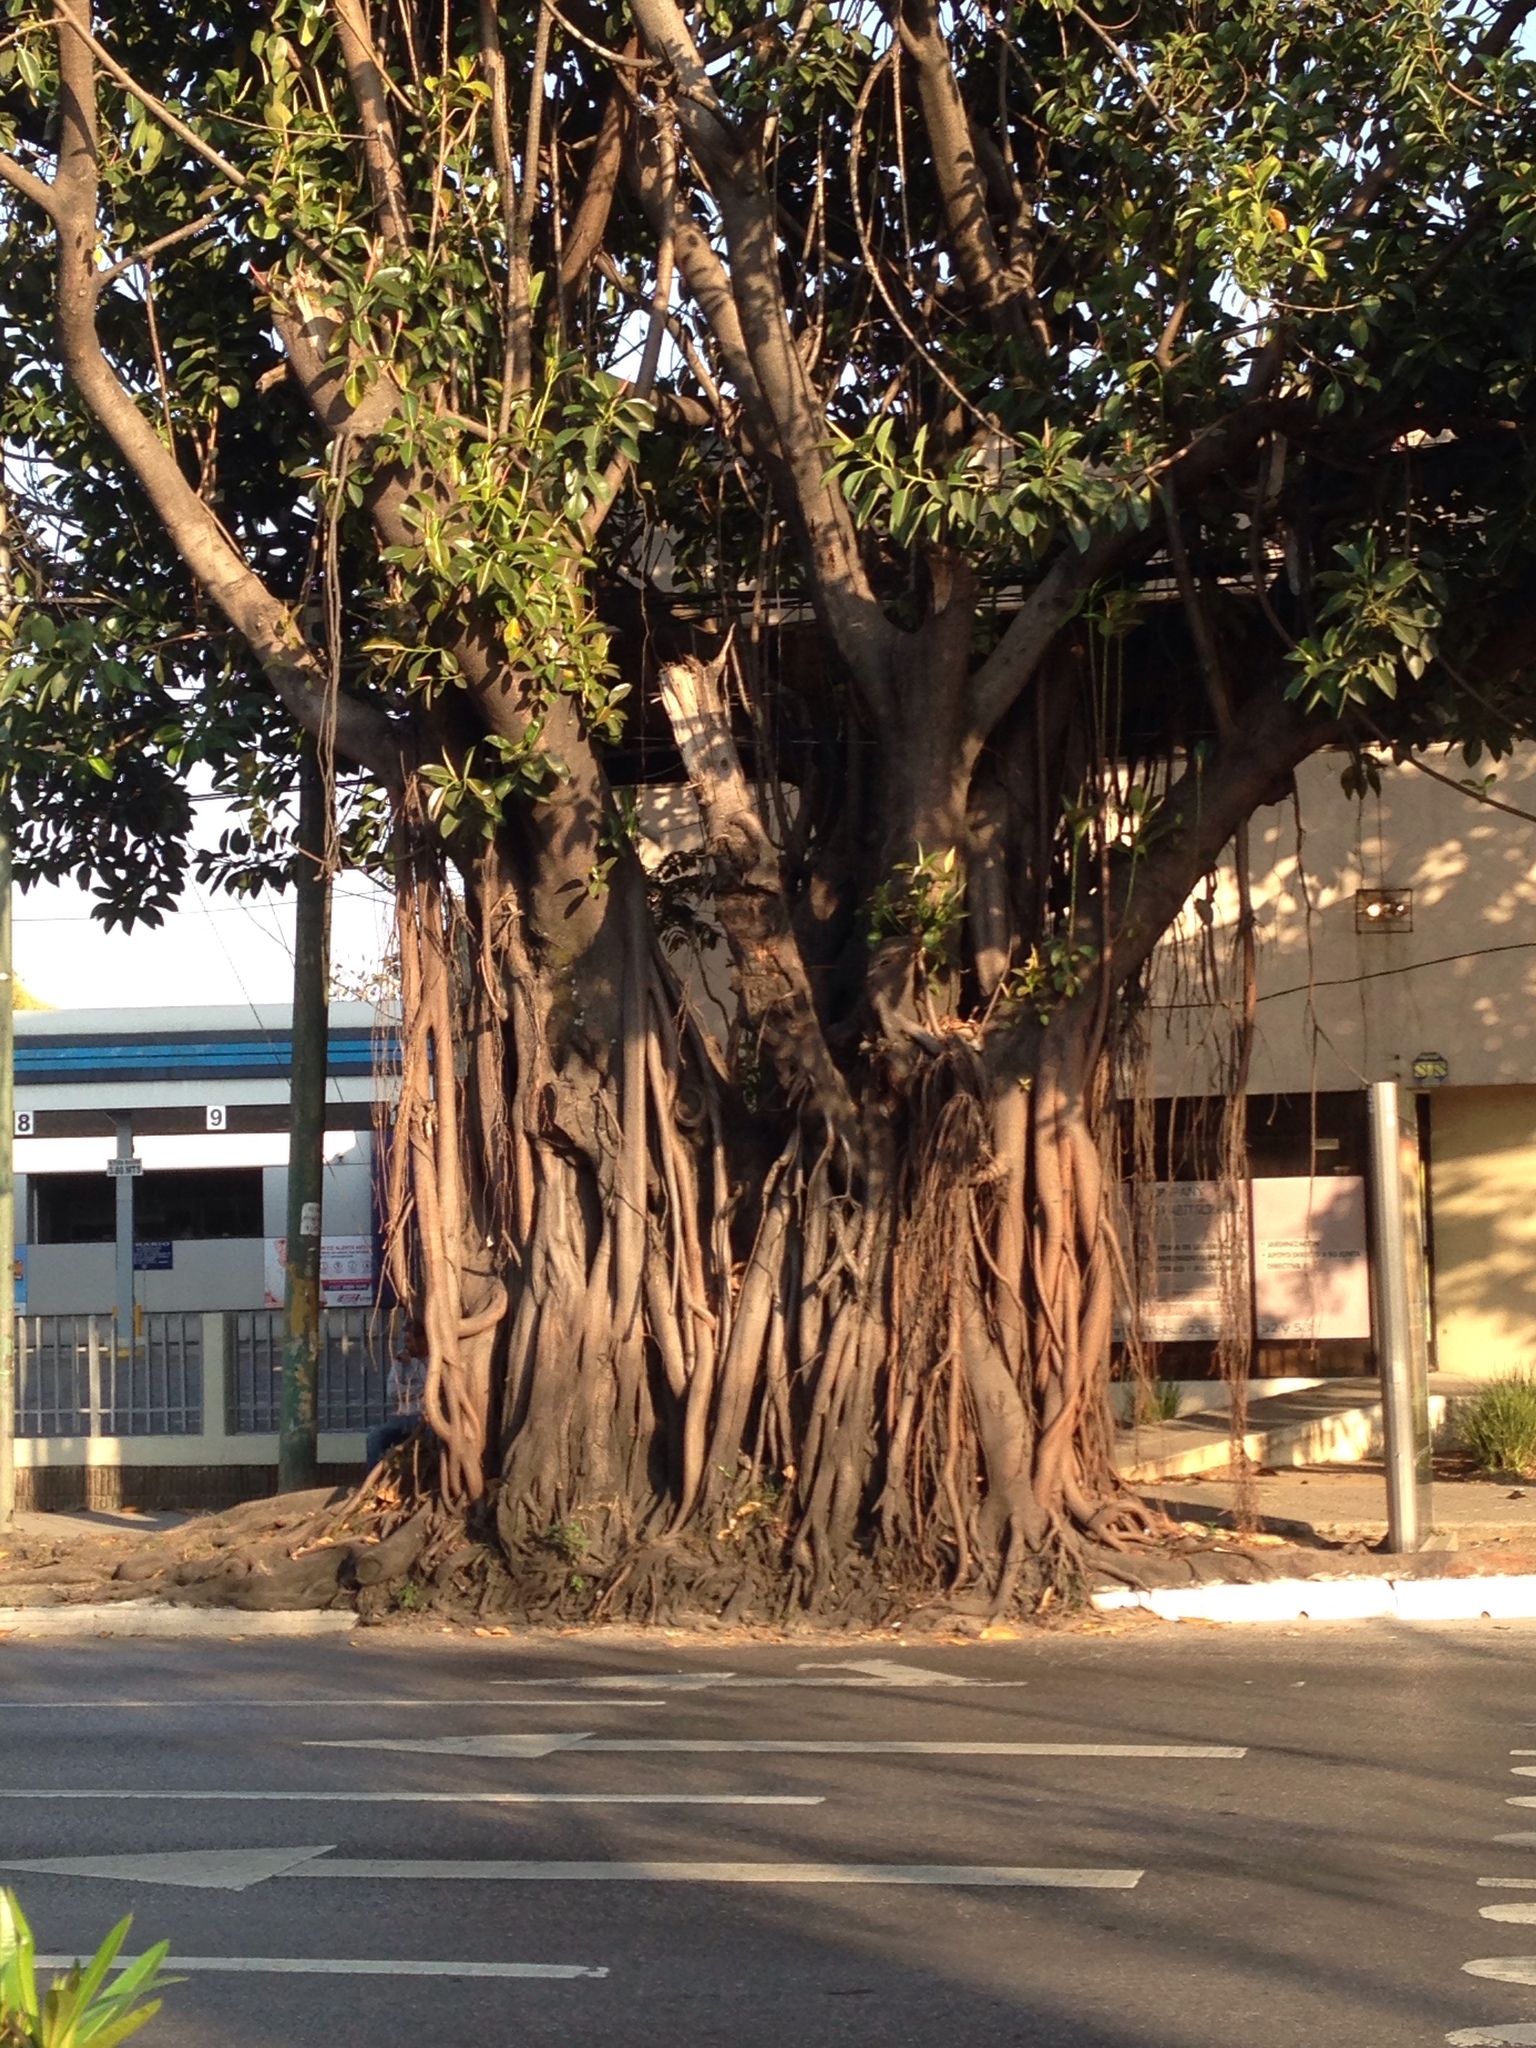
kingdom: Plantae
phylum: Tracheophyta
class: Magnoliopsida
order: Rosales
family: Moraceae
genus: Ficus
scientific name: Ficus elastica
